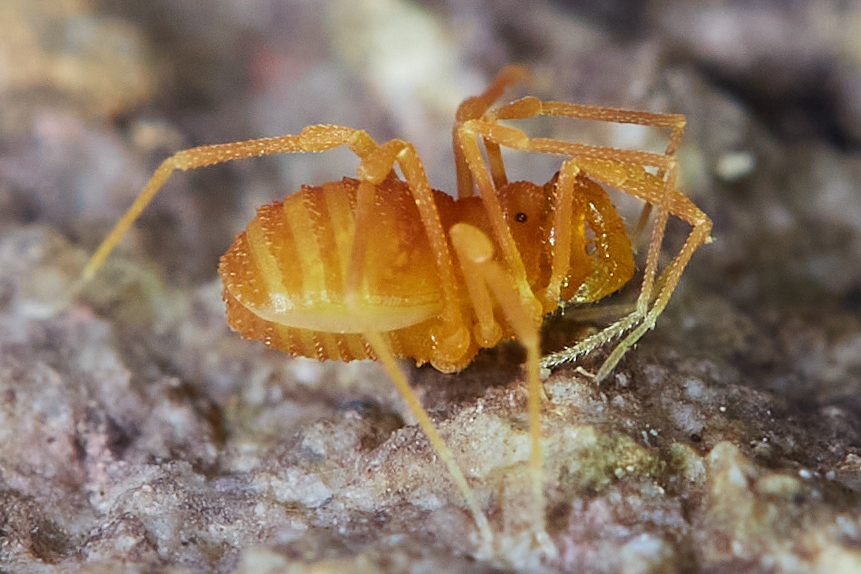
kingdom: Animalia
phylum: Arthropoda
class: Arachnida
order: Opiliones
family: Phalangodidae
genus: Sitalcina
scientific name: Sitalcina chalona
